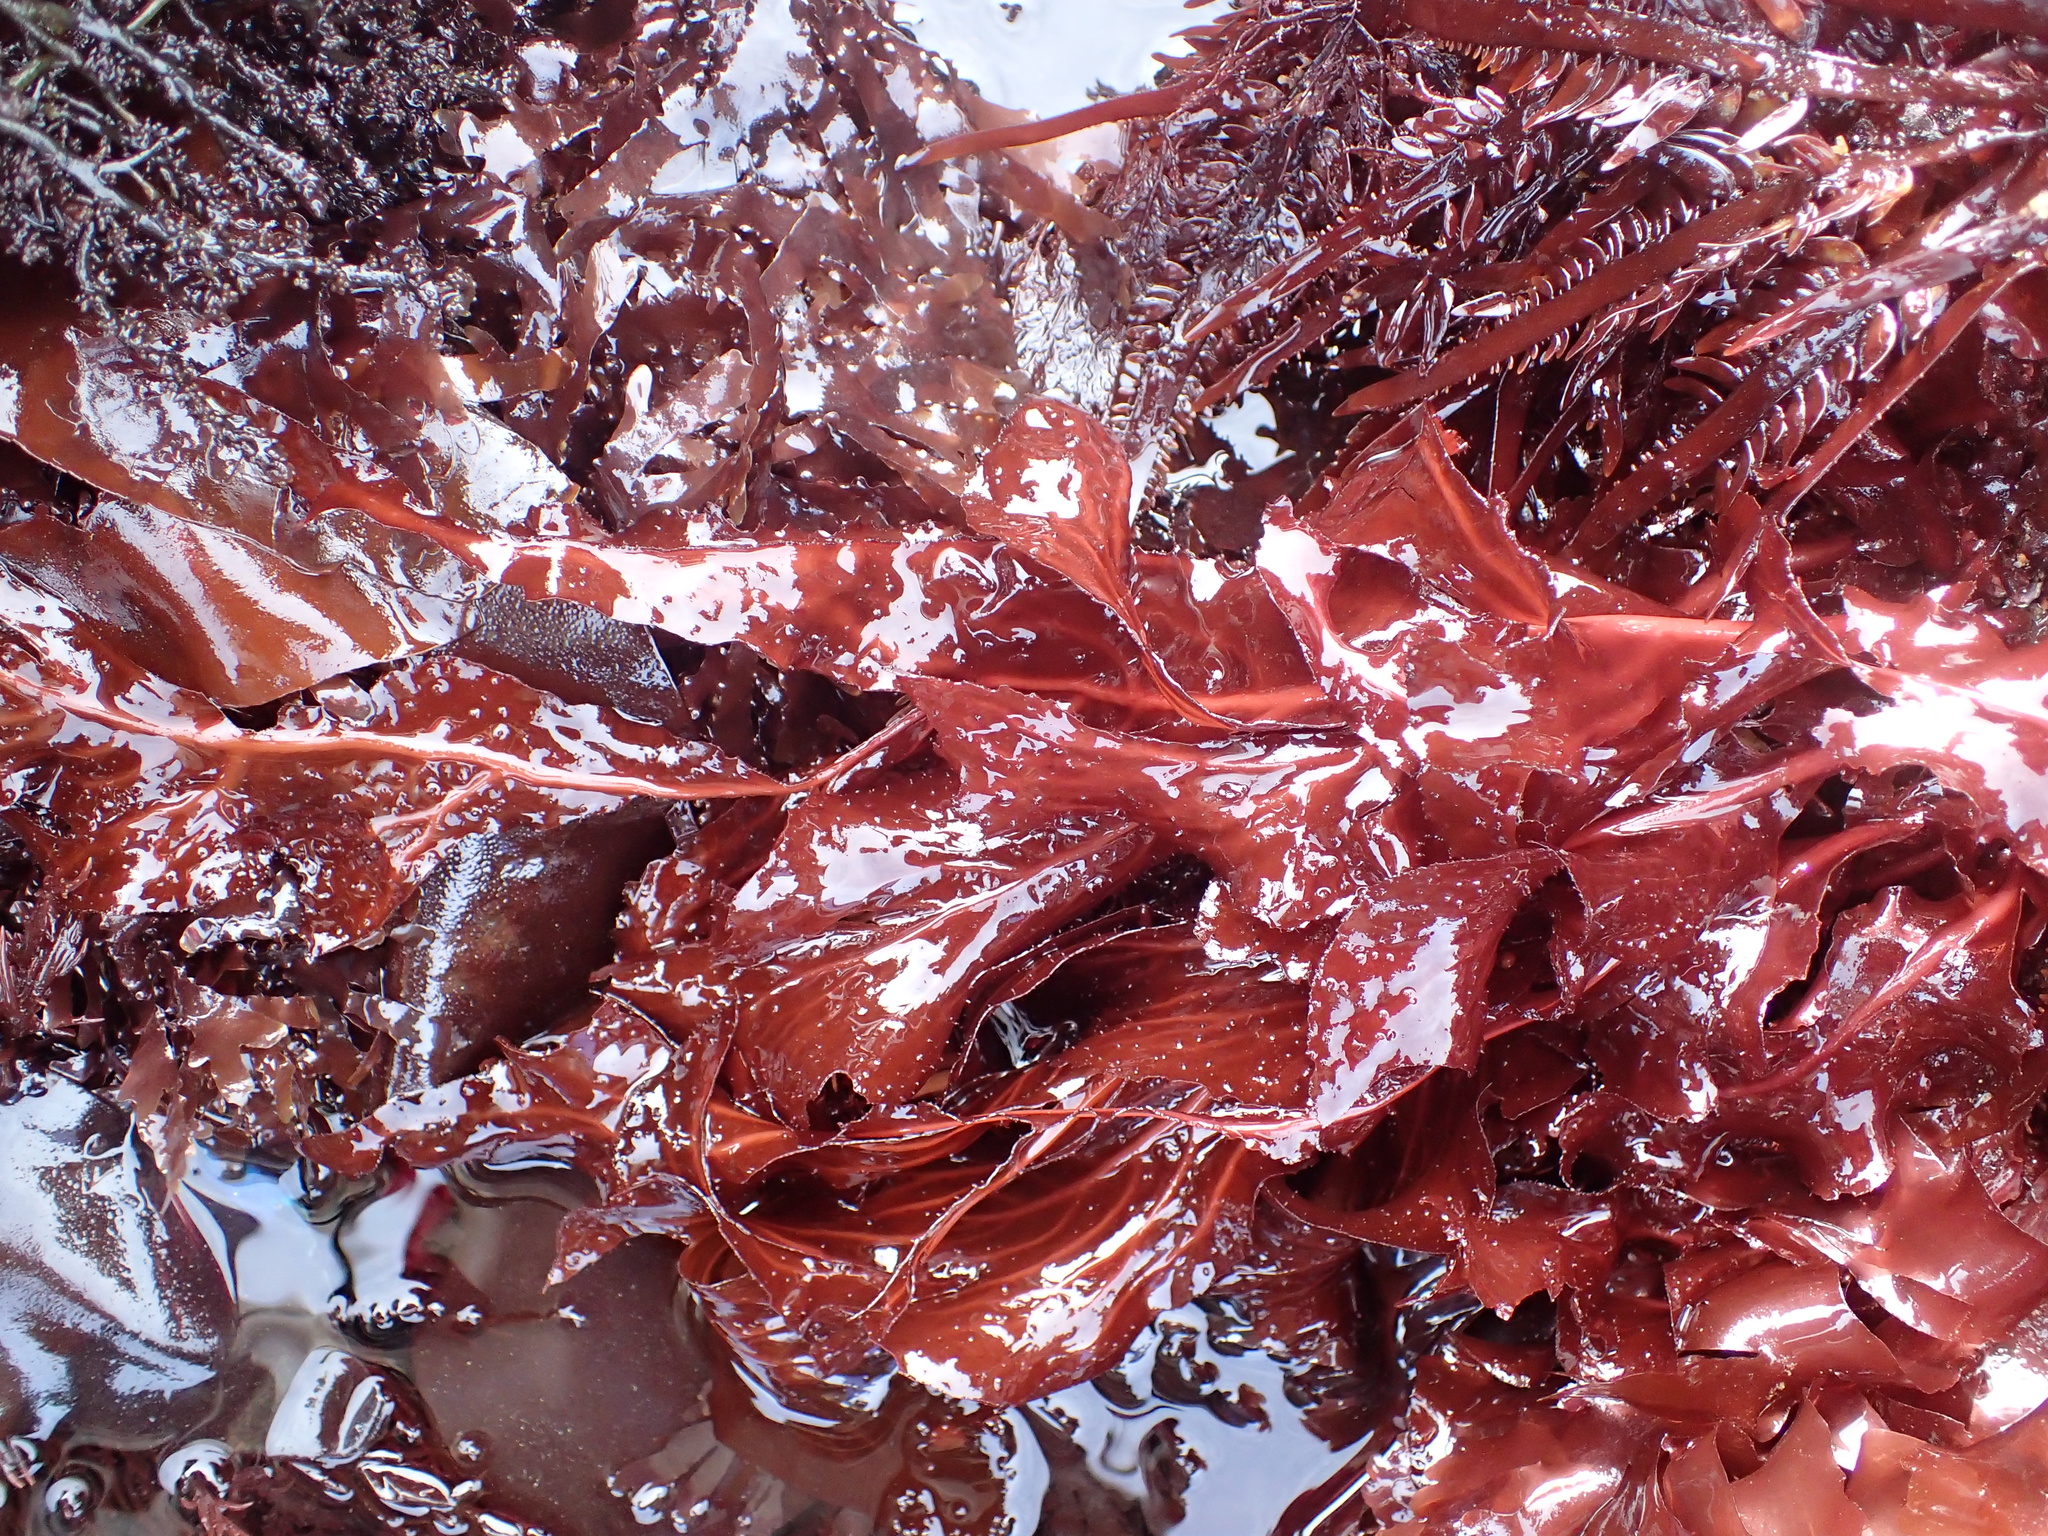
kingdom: Plantae
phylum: Rhodophyta
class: Florideophyceae
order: Gigartinales
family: Kallymeniaceae
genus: Erythrophyllum
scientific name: Erythrophyllum delesserioides
